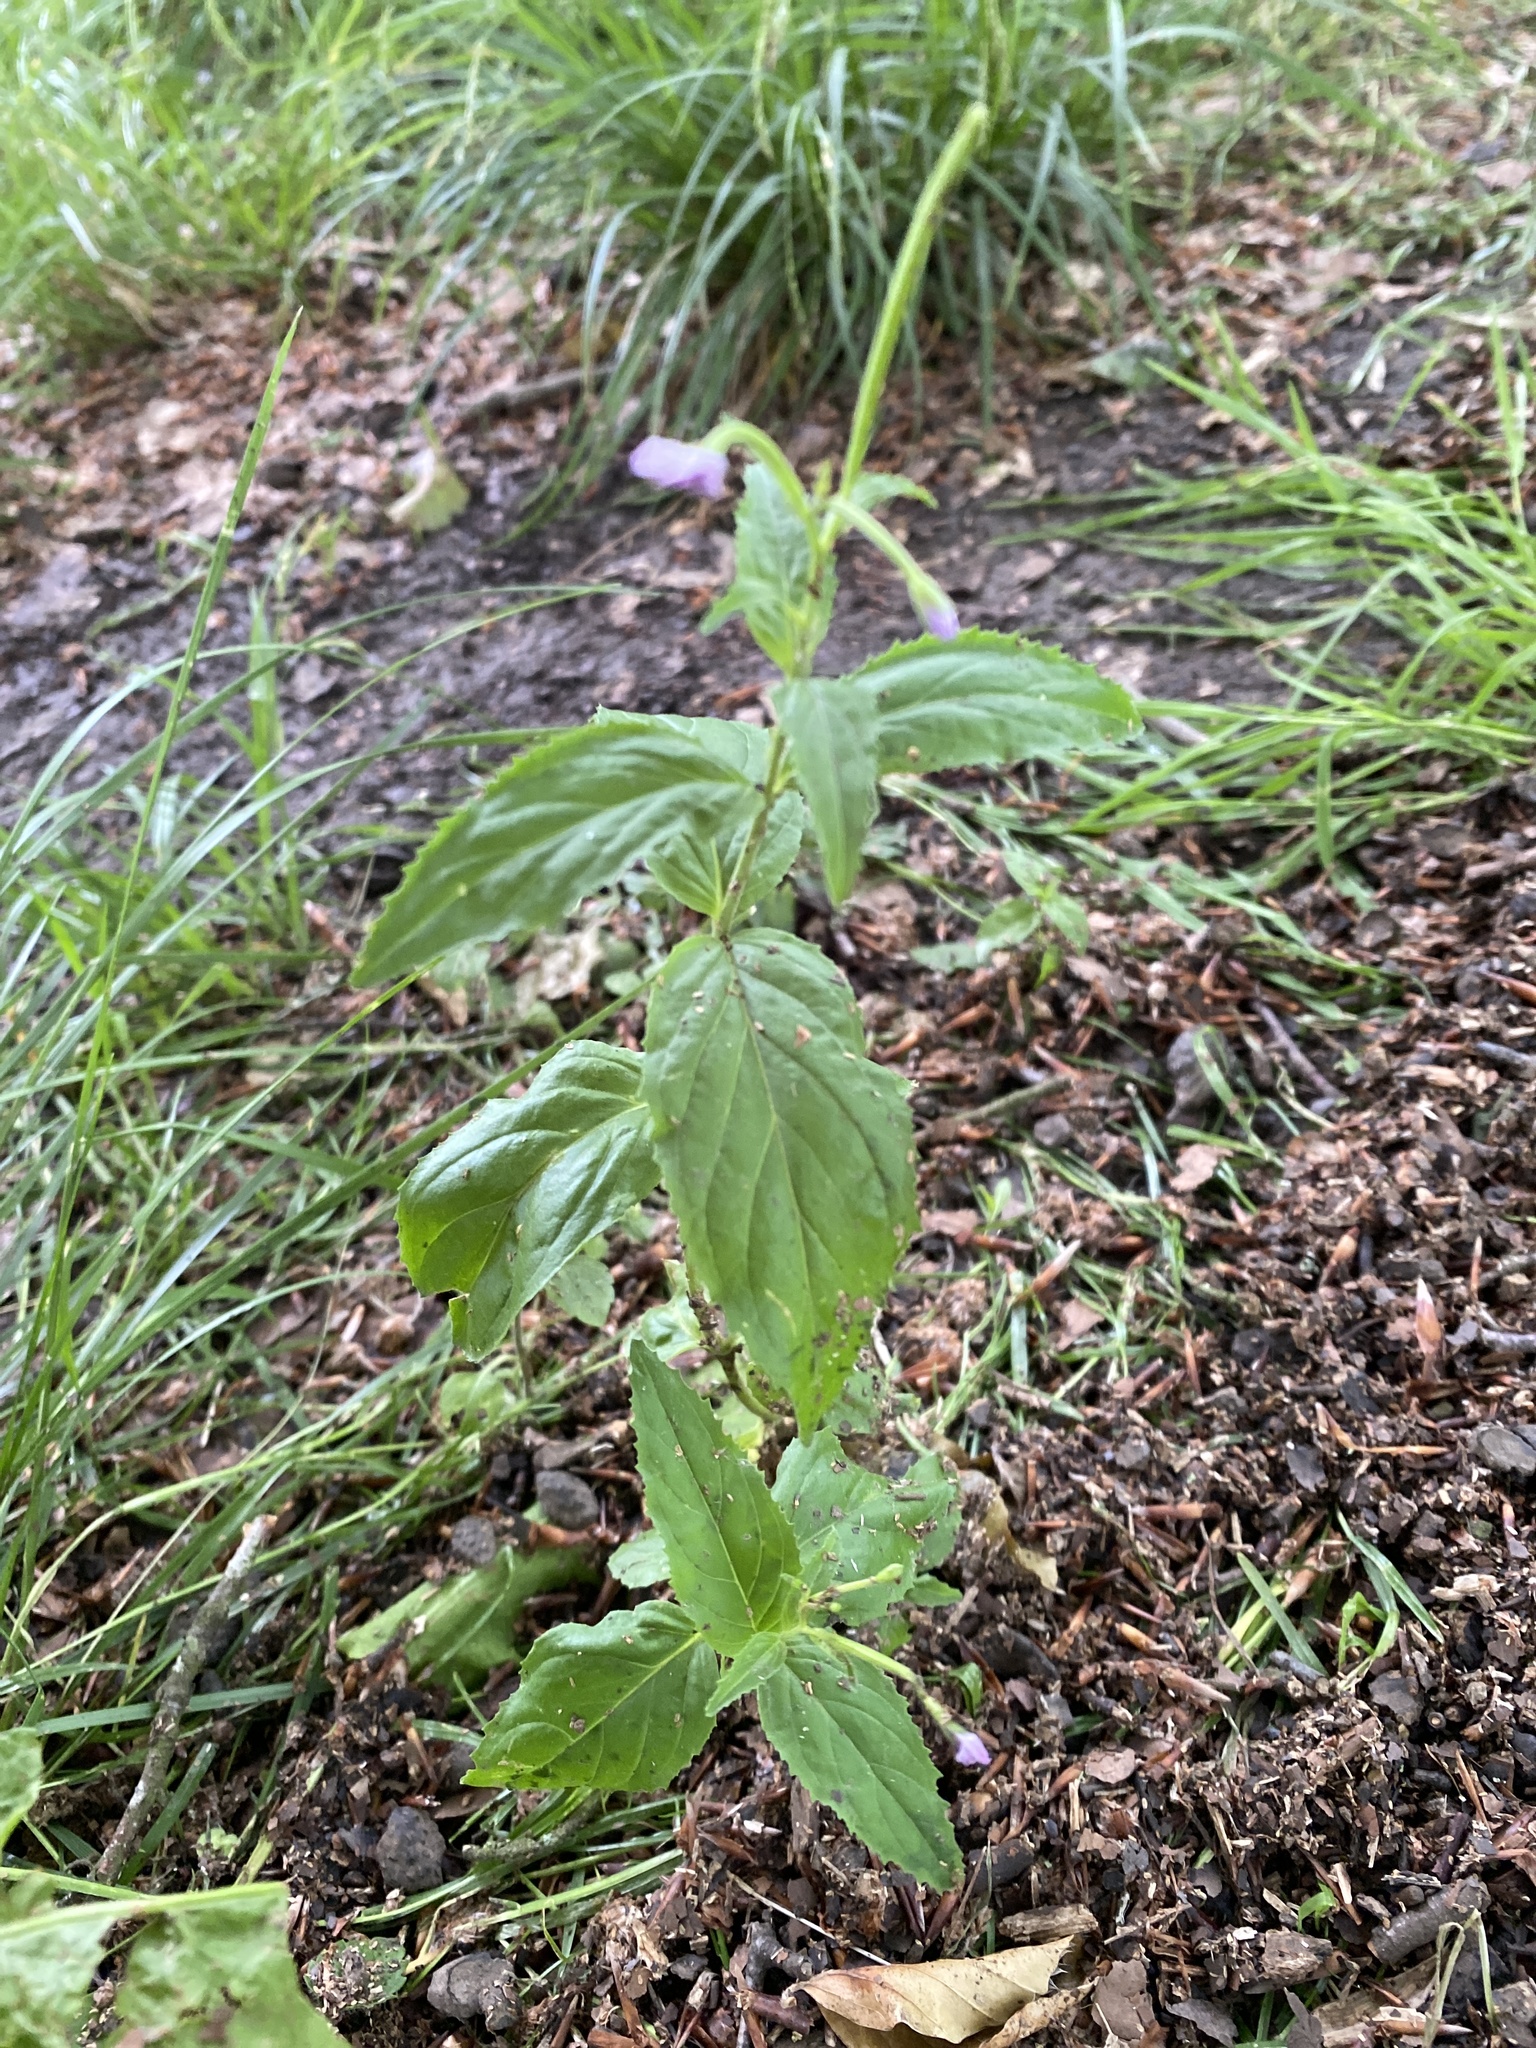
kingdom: Plantae
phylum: Tracheophyta
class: Magnoliopsida
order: Myrtales
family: Onagraceae
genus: Epilobium
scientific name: Epilobium montanum
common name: Broad-leaved willowherb
